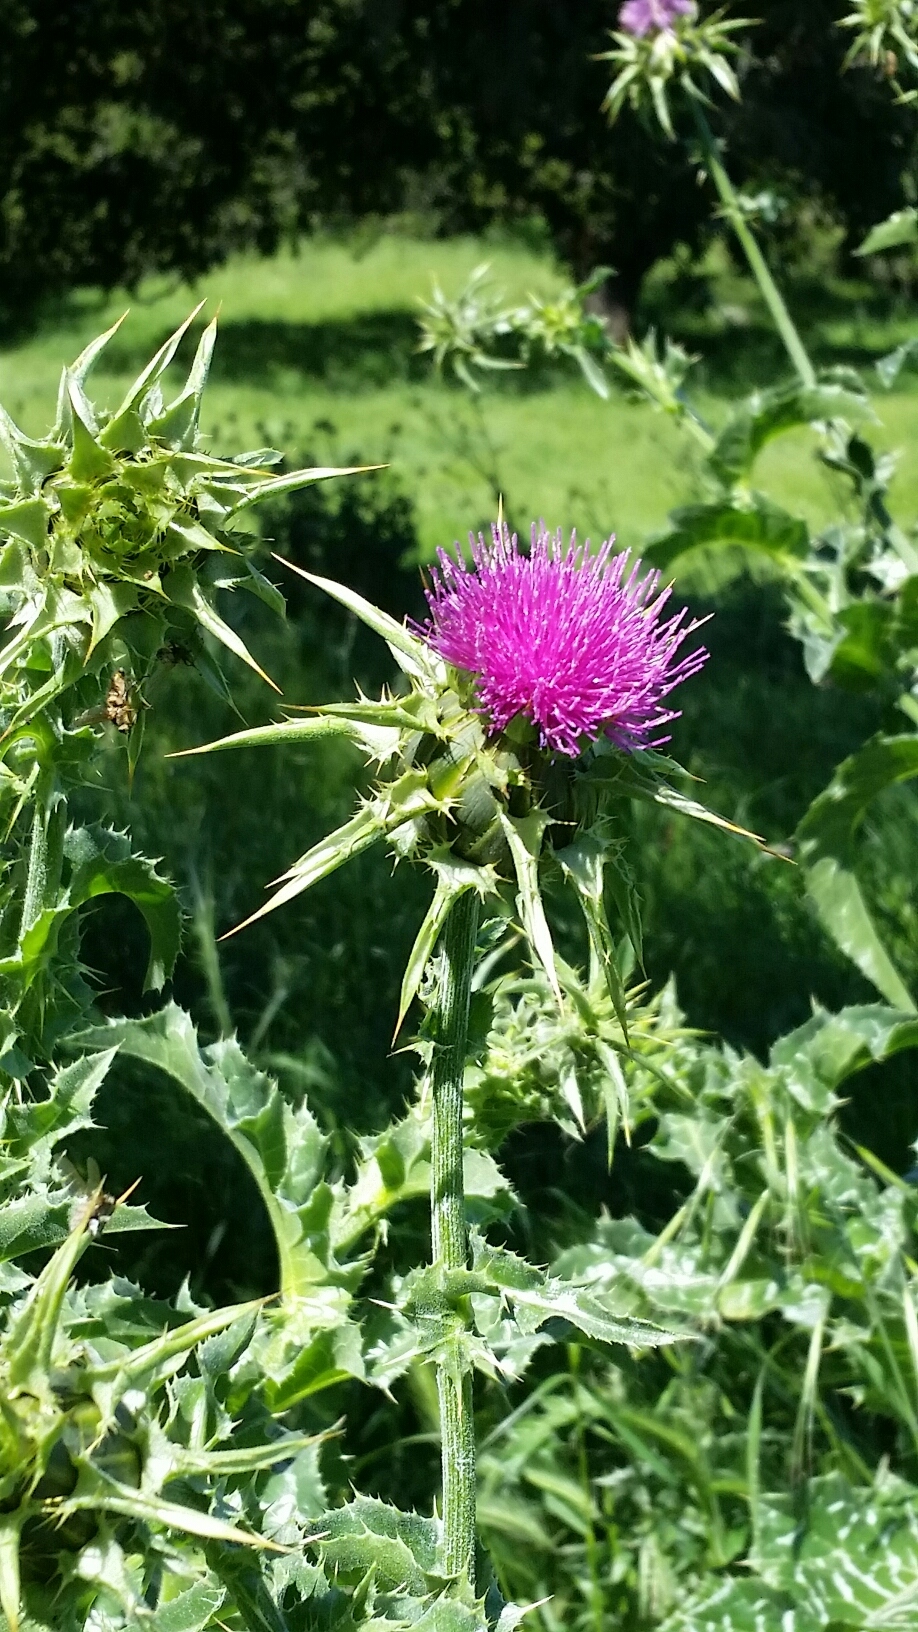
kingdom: Plantae
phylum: Tracheophyta
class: Magnoliopsida
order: Asterales
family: Asteraceae
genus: Silybum
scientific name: Silybum marianum
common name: Milk thistle
